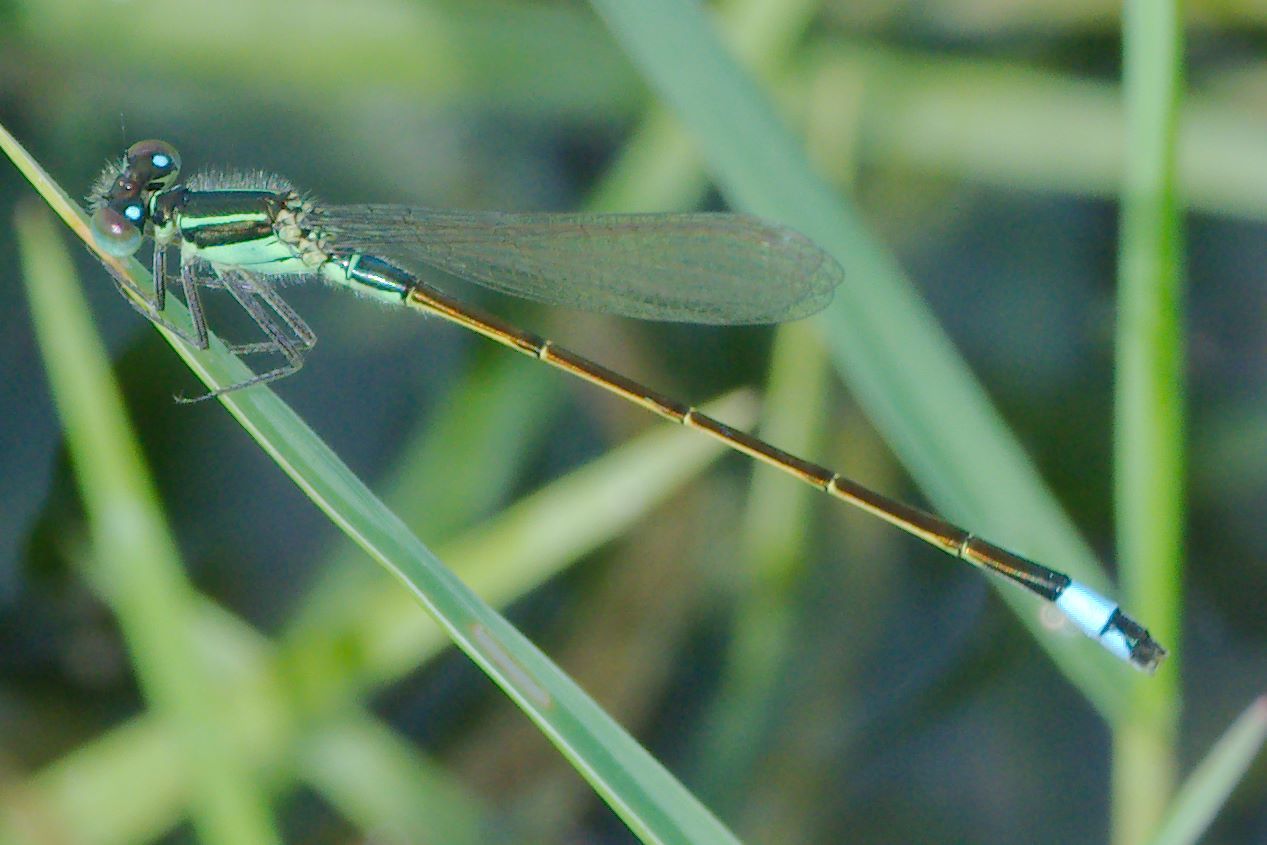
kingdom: Animalia
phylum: Arthropoda
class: Insecta
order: Odonata
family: Coenagrionidae
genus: Ischnura
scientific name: Ischnura ramburii
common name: Rambur's forktail
